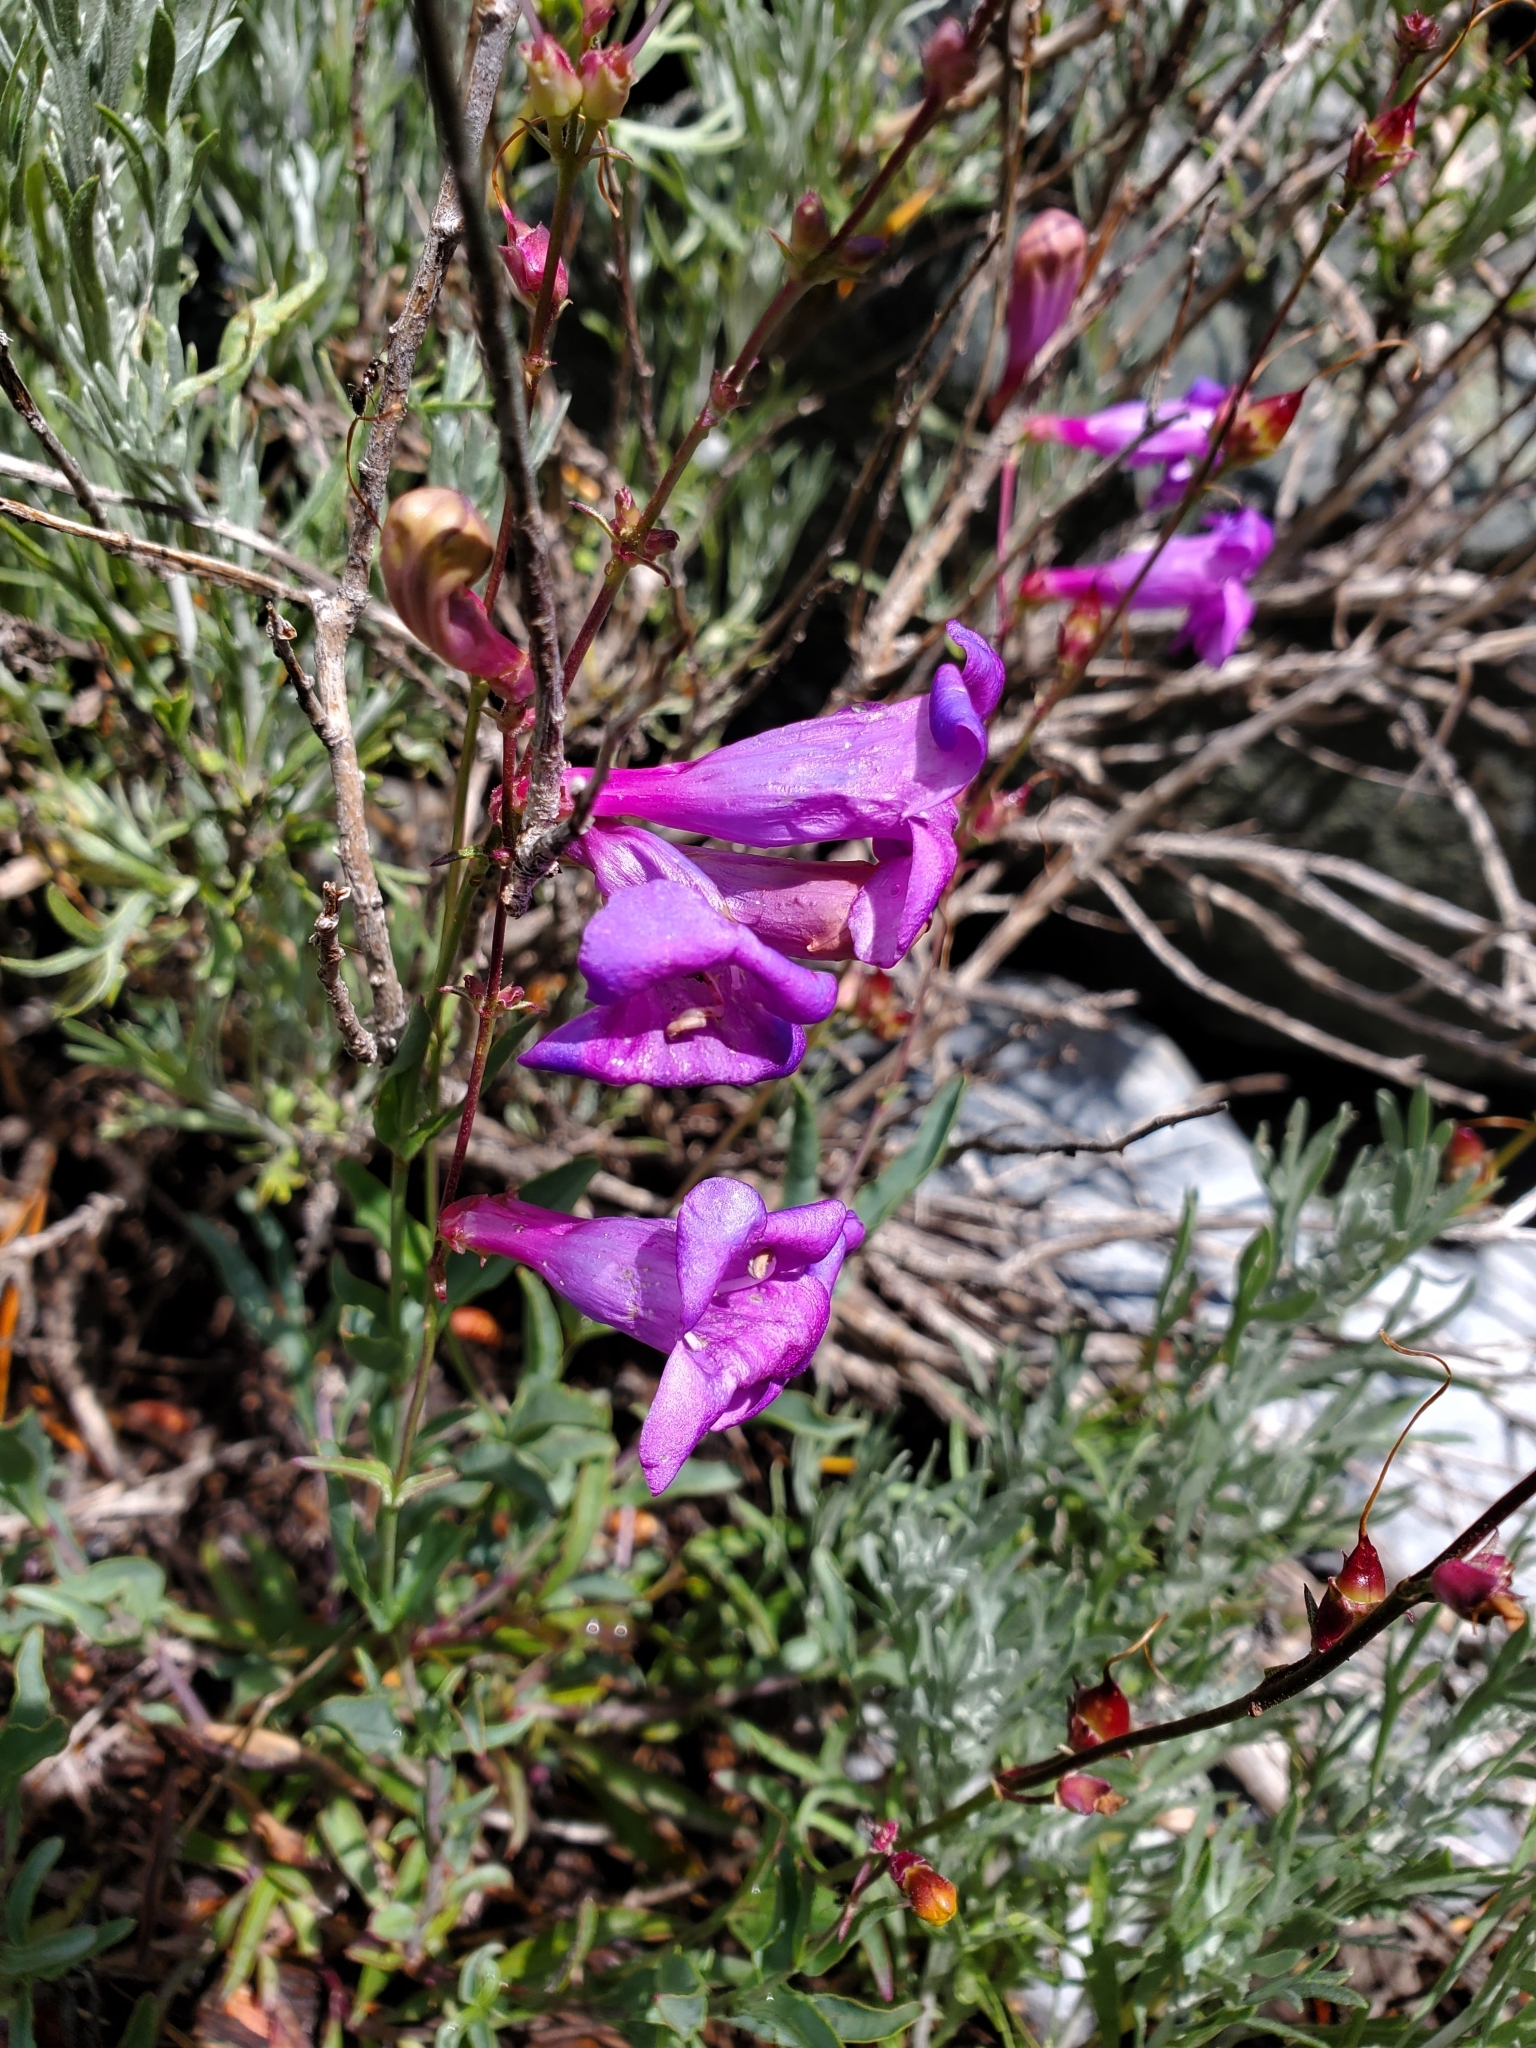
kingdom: Plantae
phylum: Tracheophyta
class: Magnoliopsida
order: Lamiales
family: Plantaginaceae
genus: Penstemon
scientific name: Penstemon azureus
